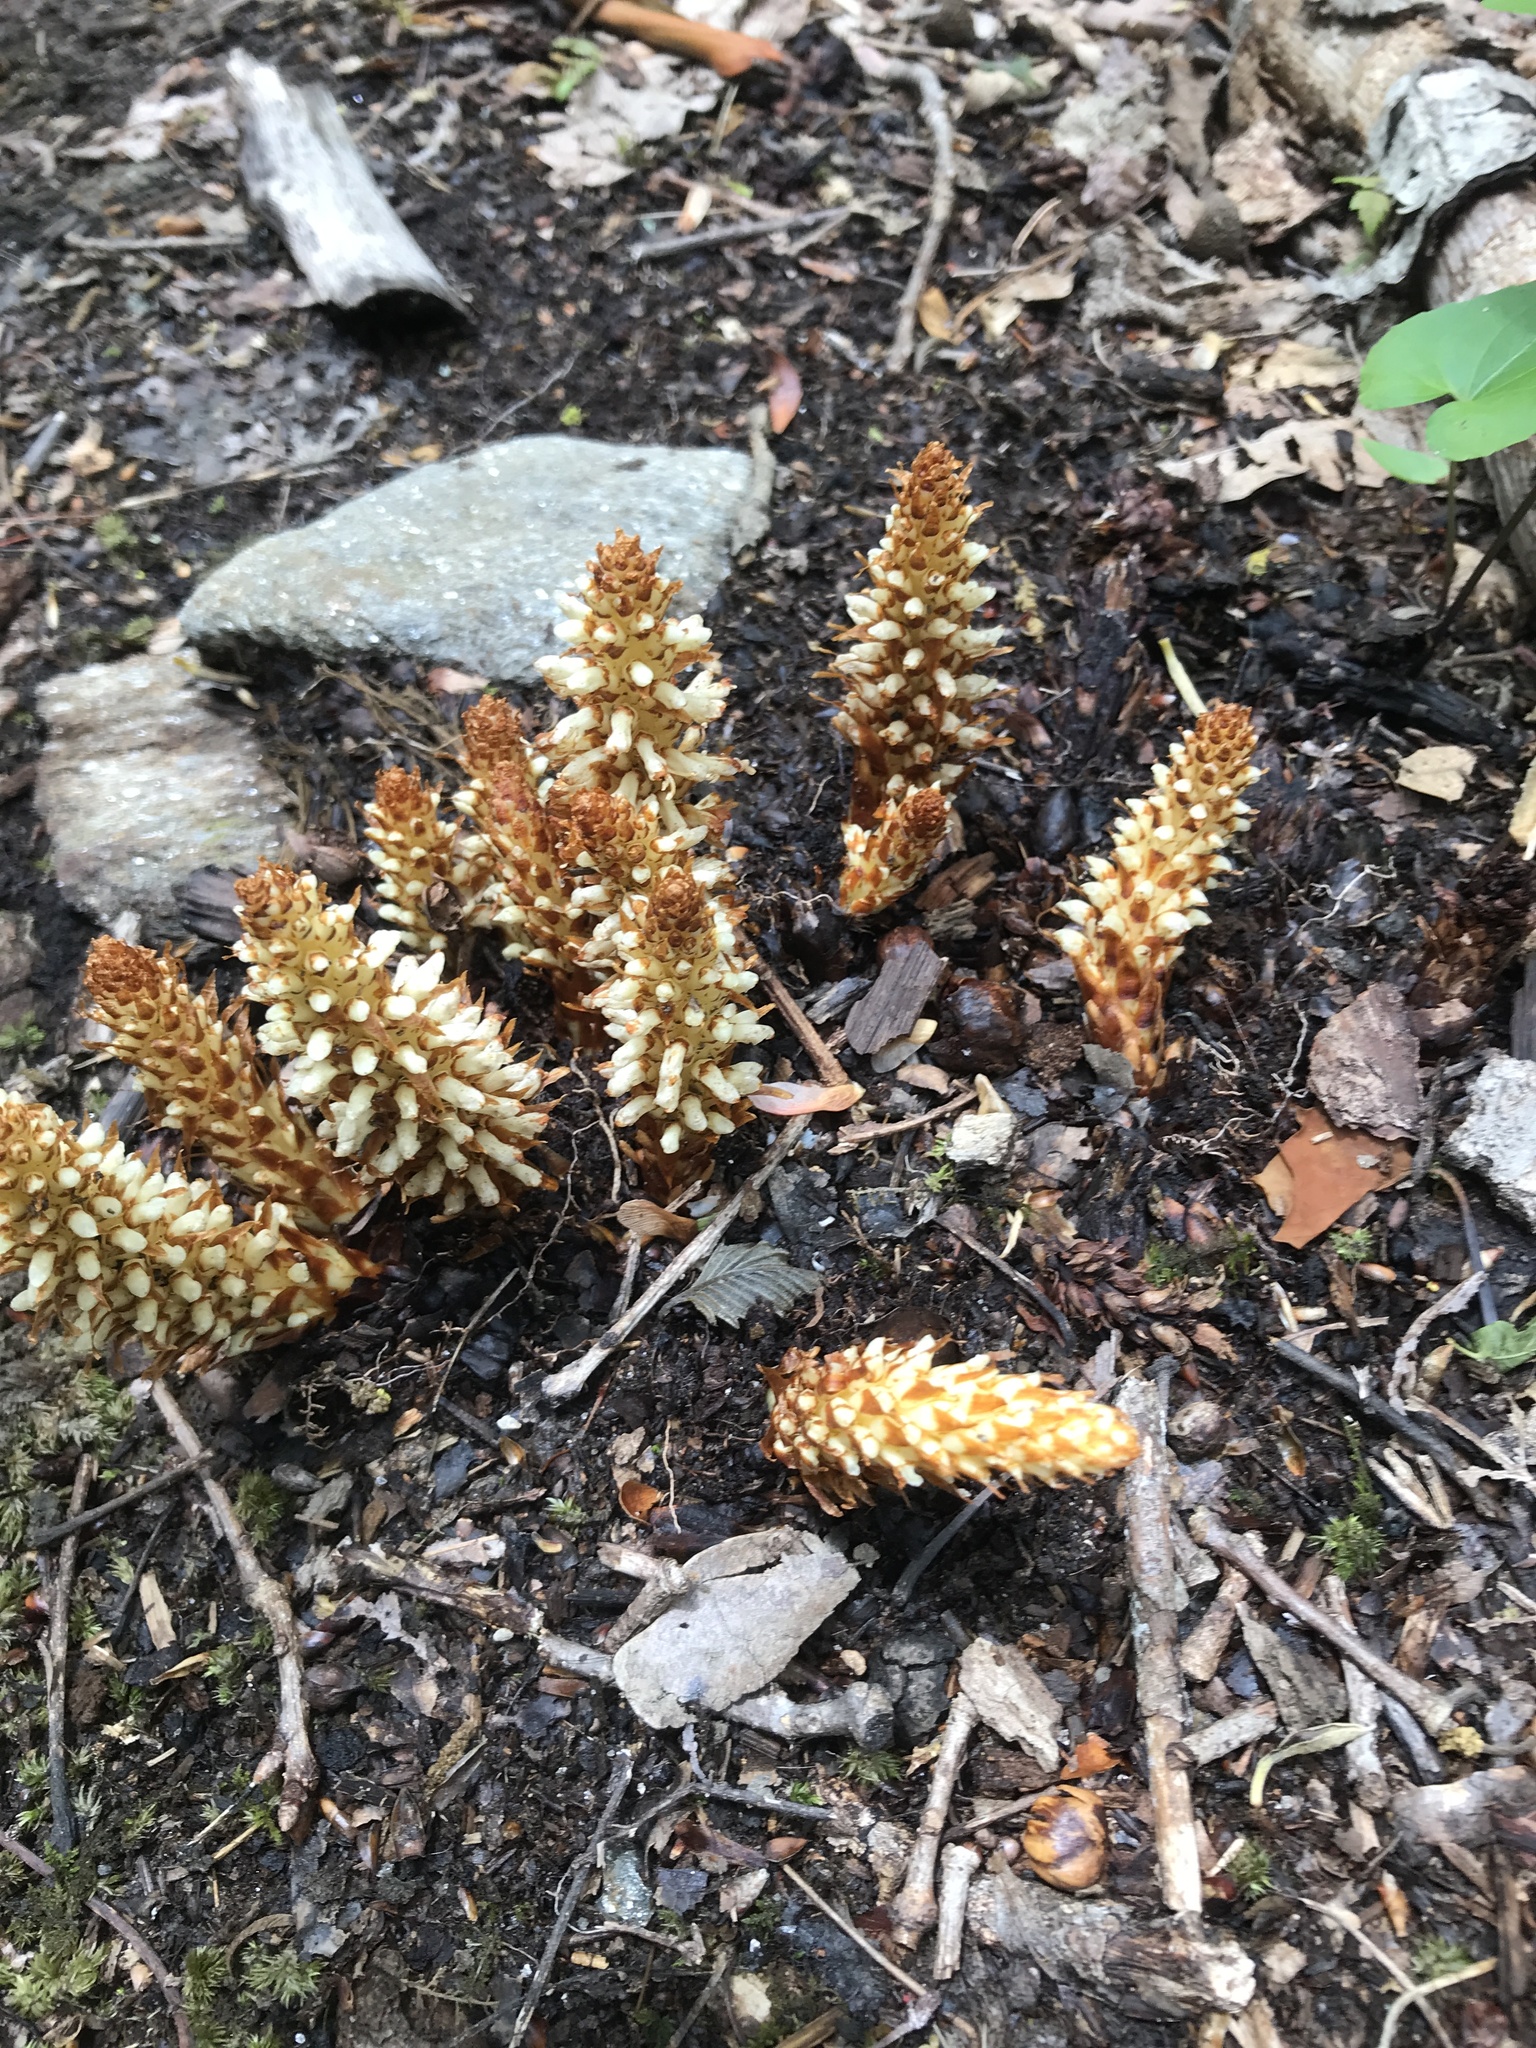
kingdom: Plantae
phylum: Tracheophyta
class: Magnoliopsida
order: Lamiales
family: Orobanchaceae
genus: Conopholis
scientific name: Conopholis americana
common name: American cancer-root
